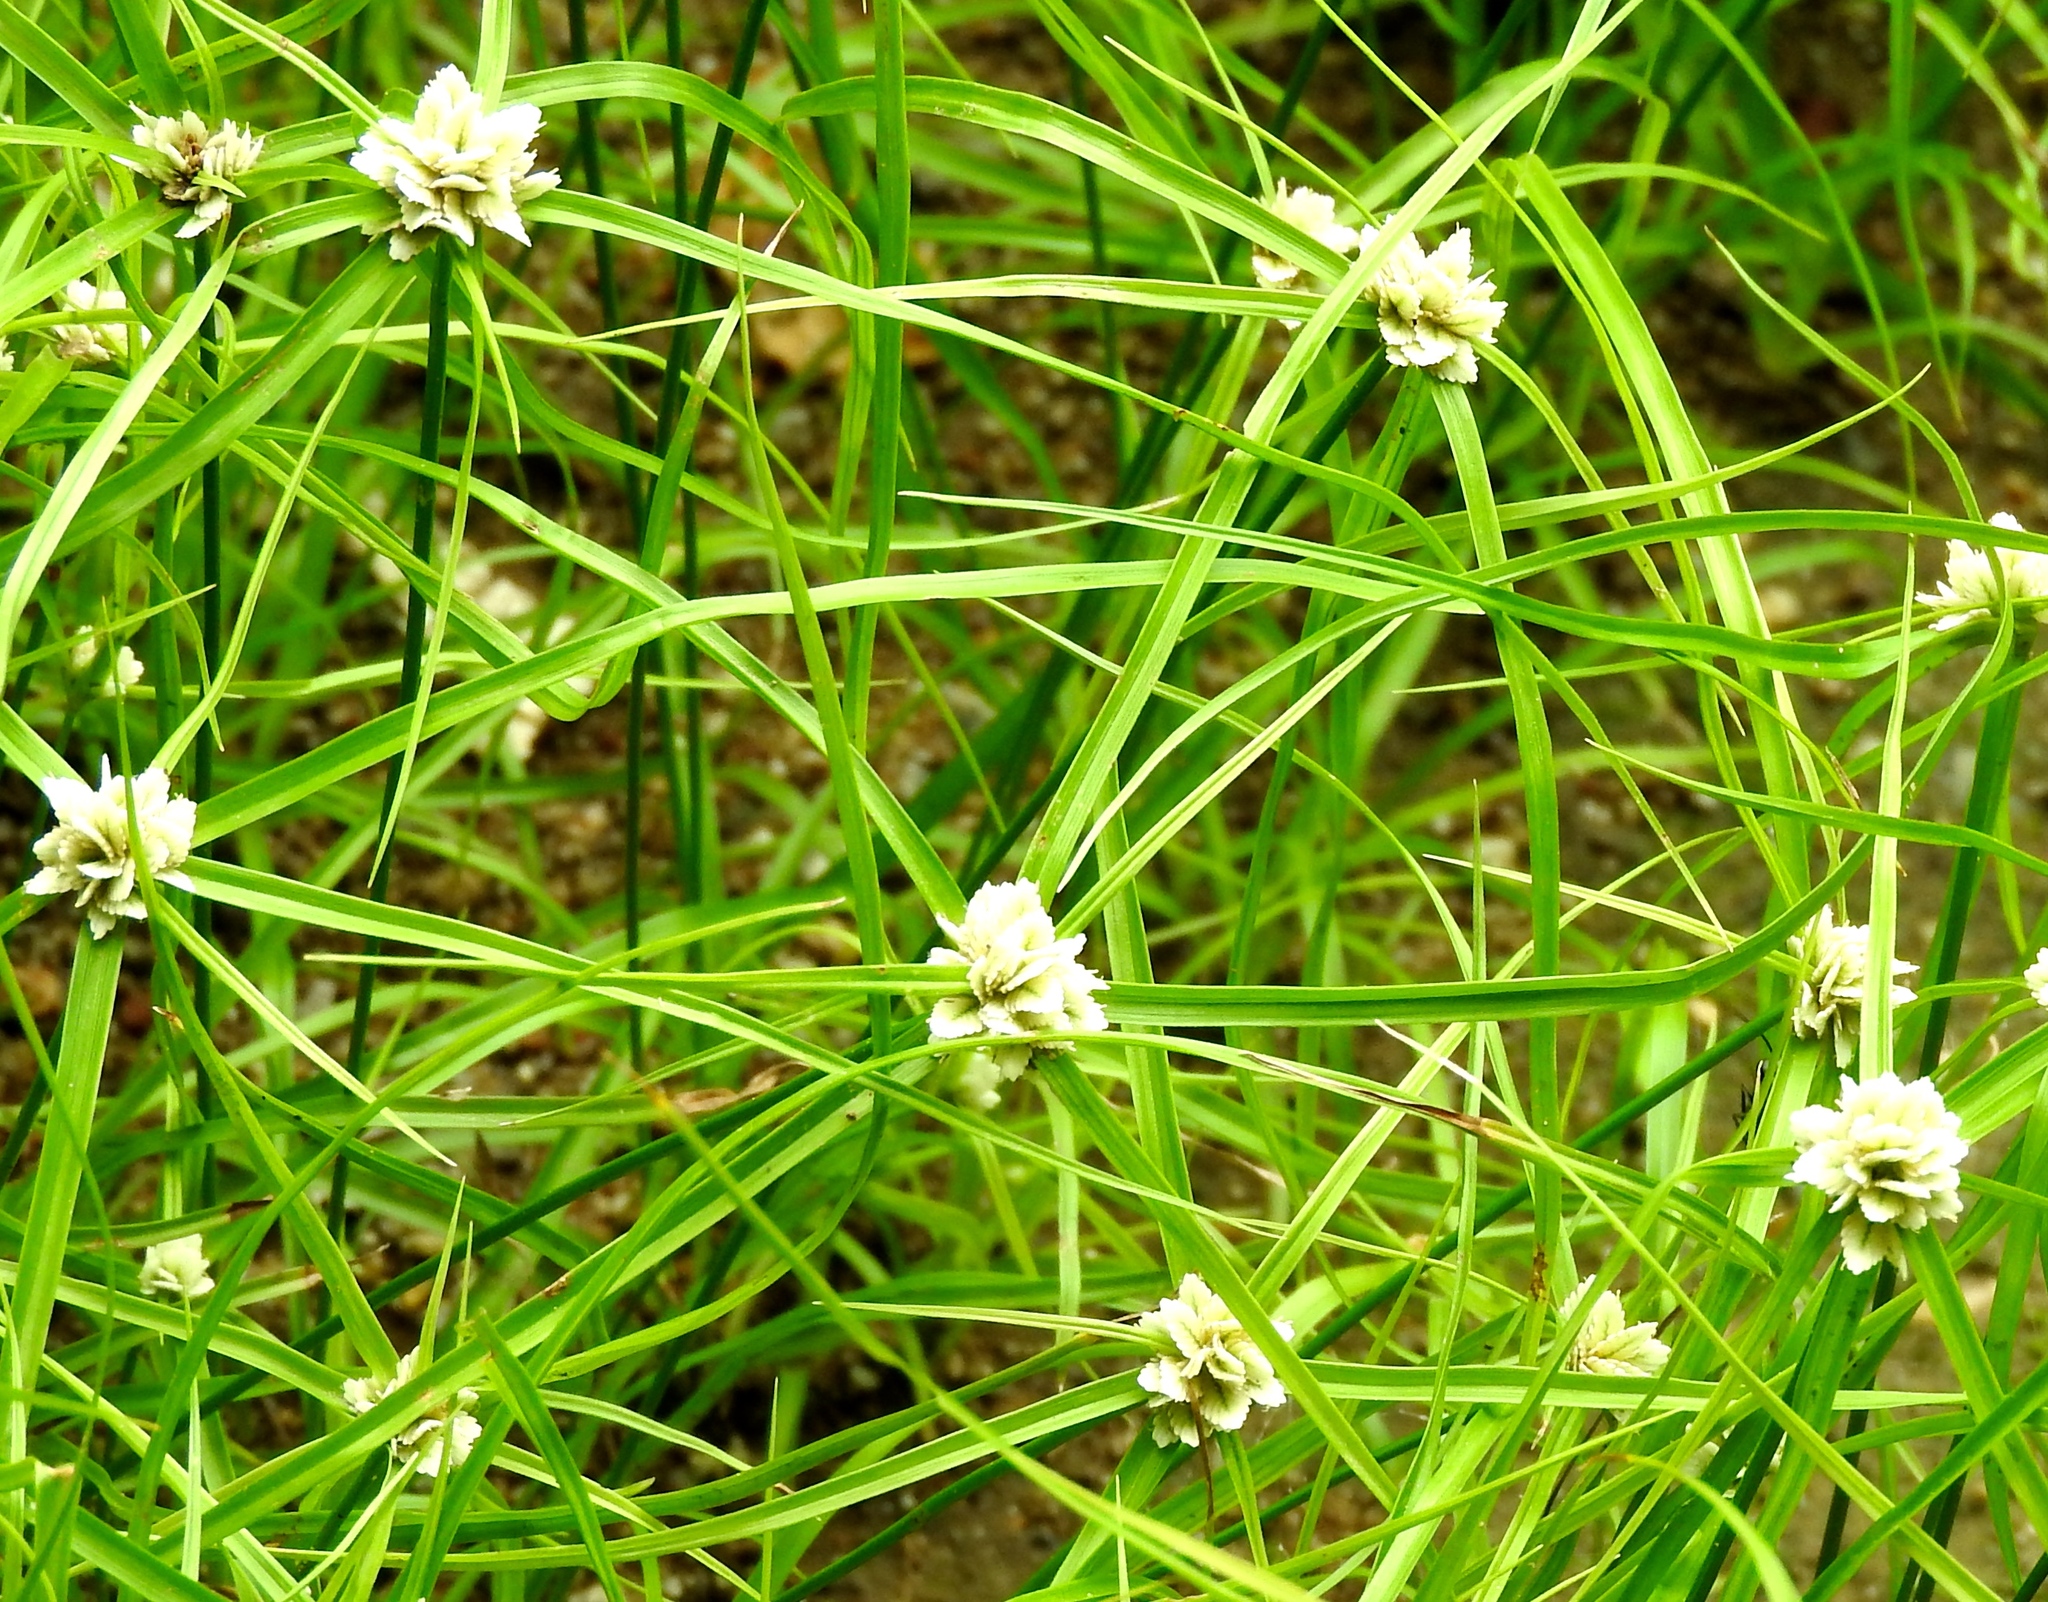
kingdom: Plantae
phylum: Tracheophyta
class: Liliopsida
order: Poales
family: Cyperaceae
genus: Cyperus
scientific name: Cyperus tenerrimus
